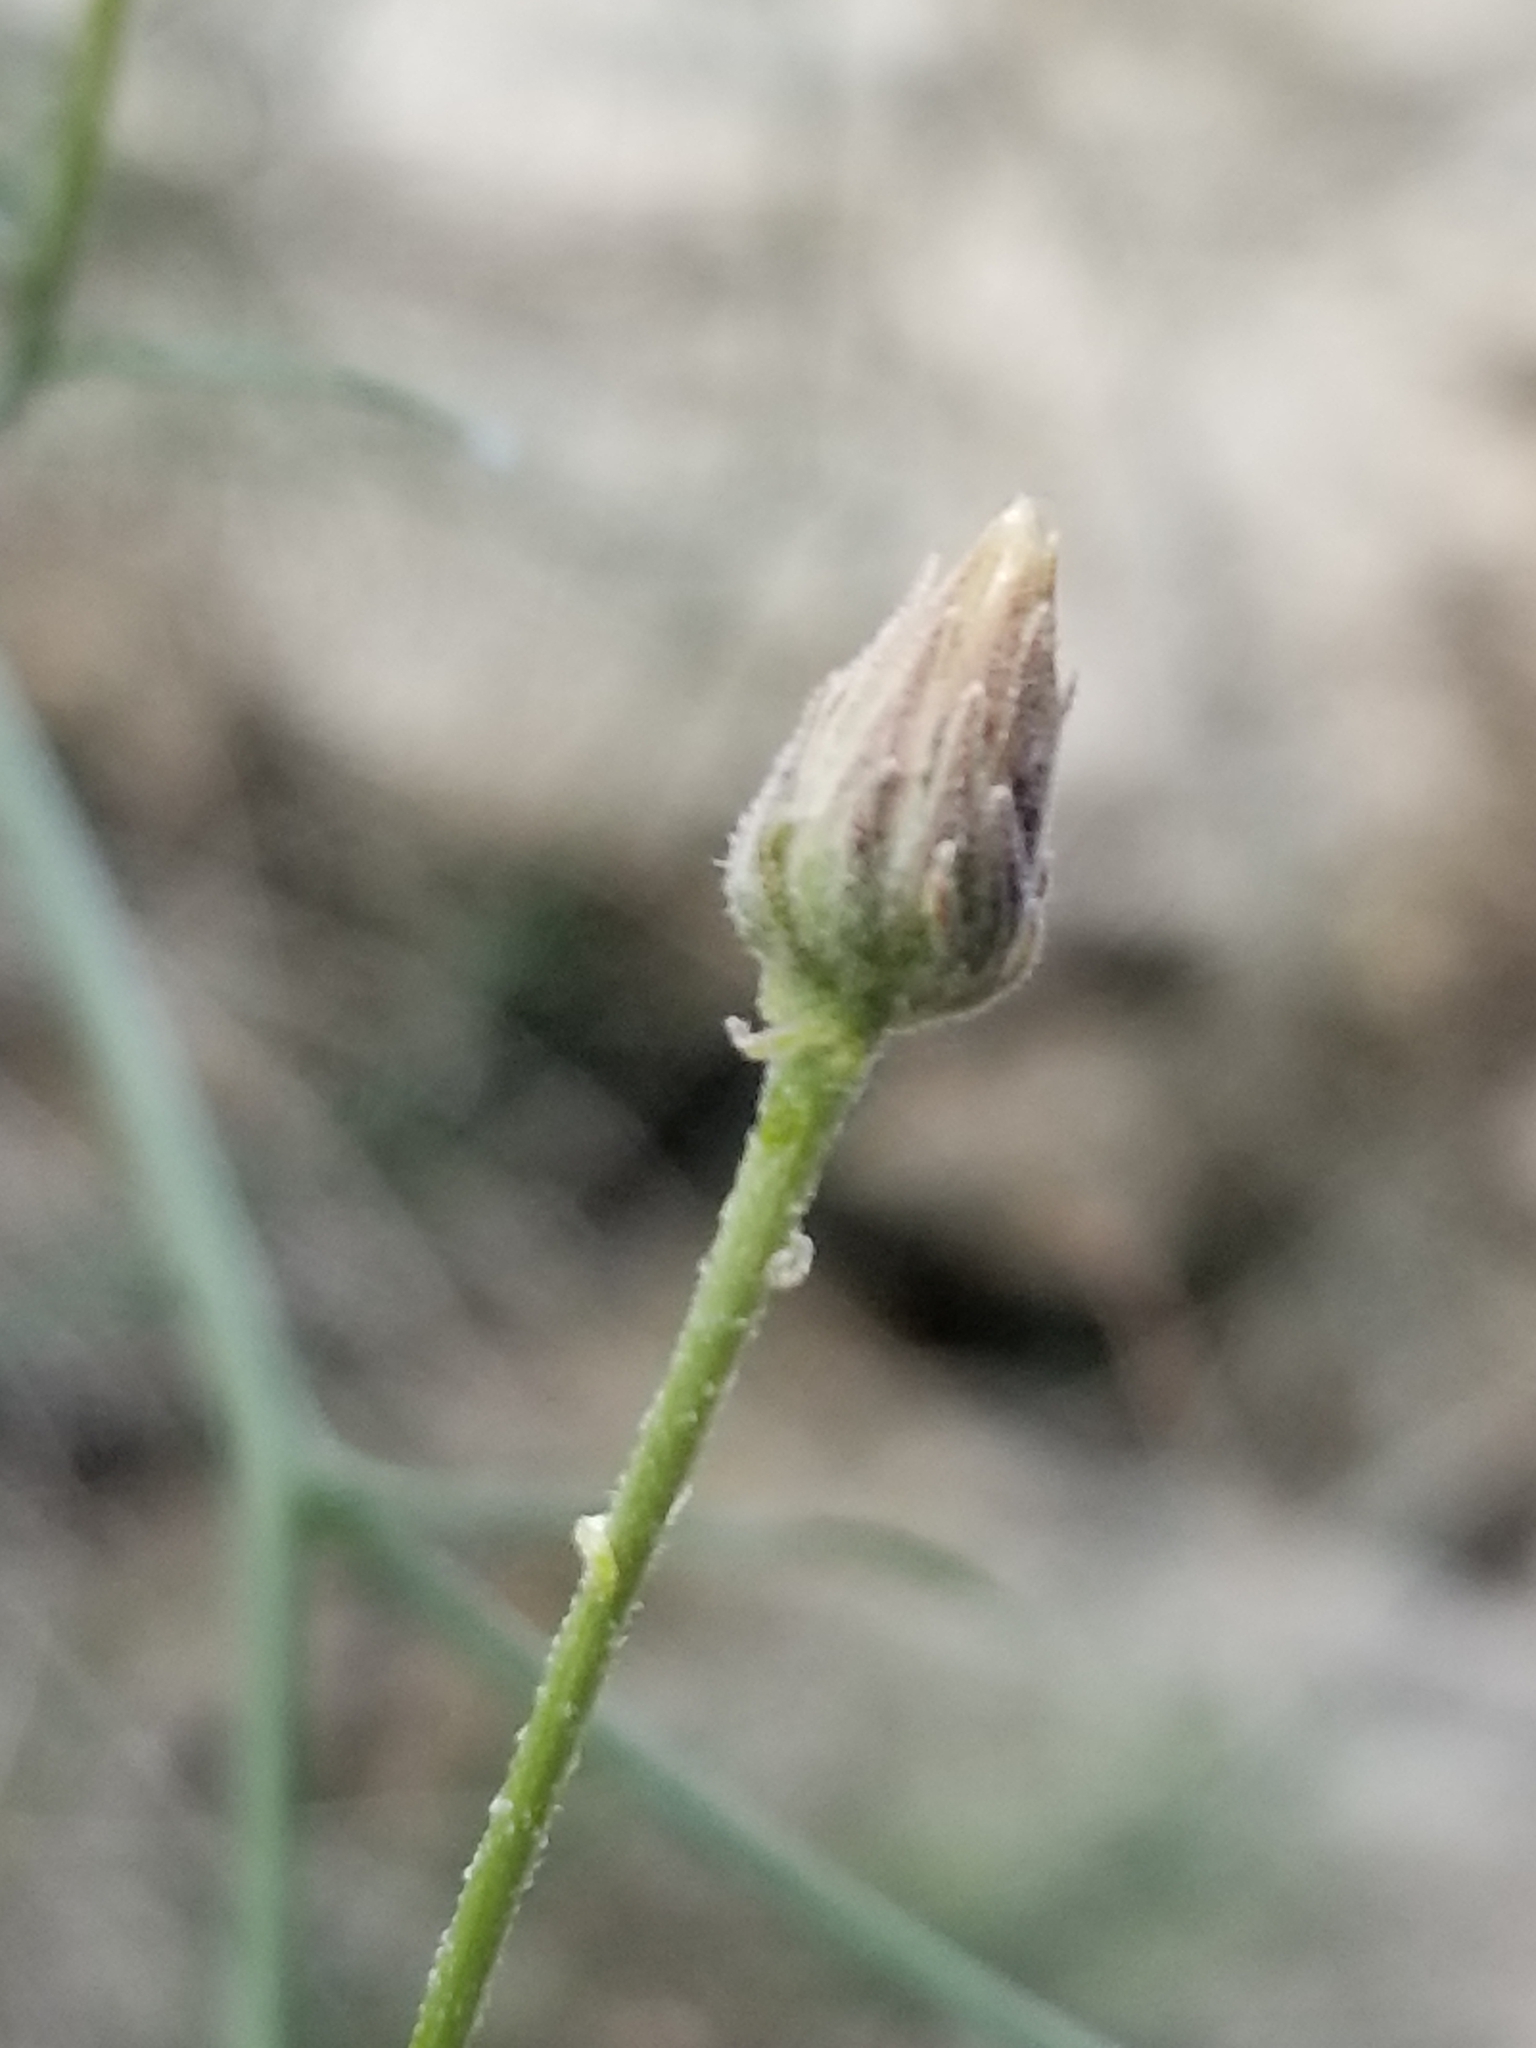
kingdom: Plantae
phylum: Tracheophyta
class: Magnoliopsida
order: Asterales
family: Asteraceae
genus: Bebbia
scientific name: Bebbia juncea
